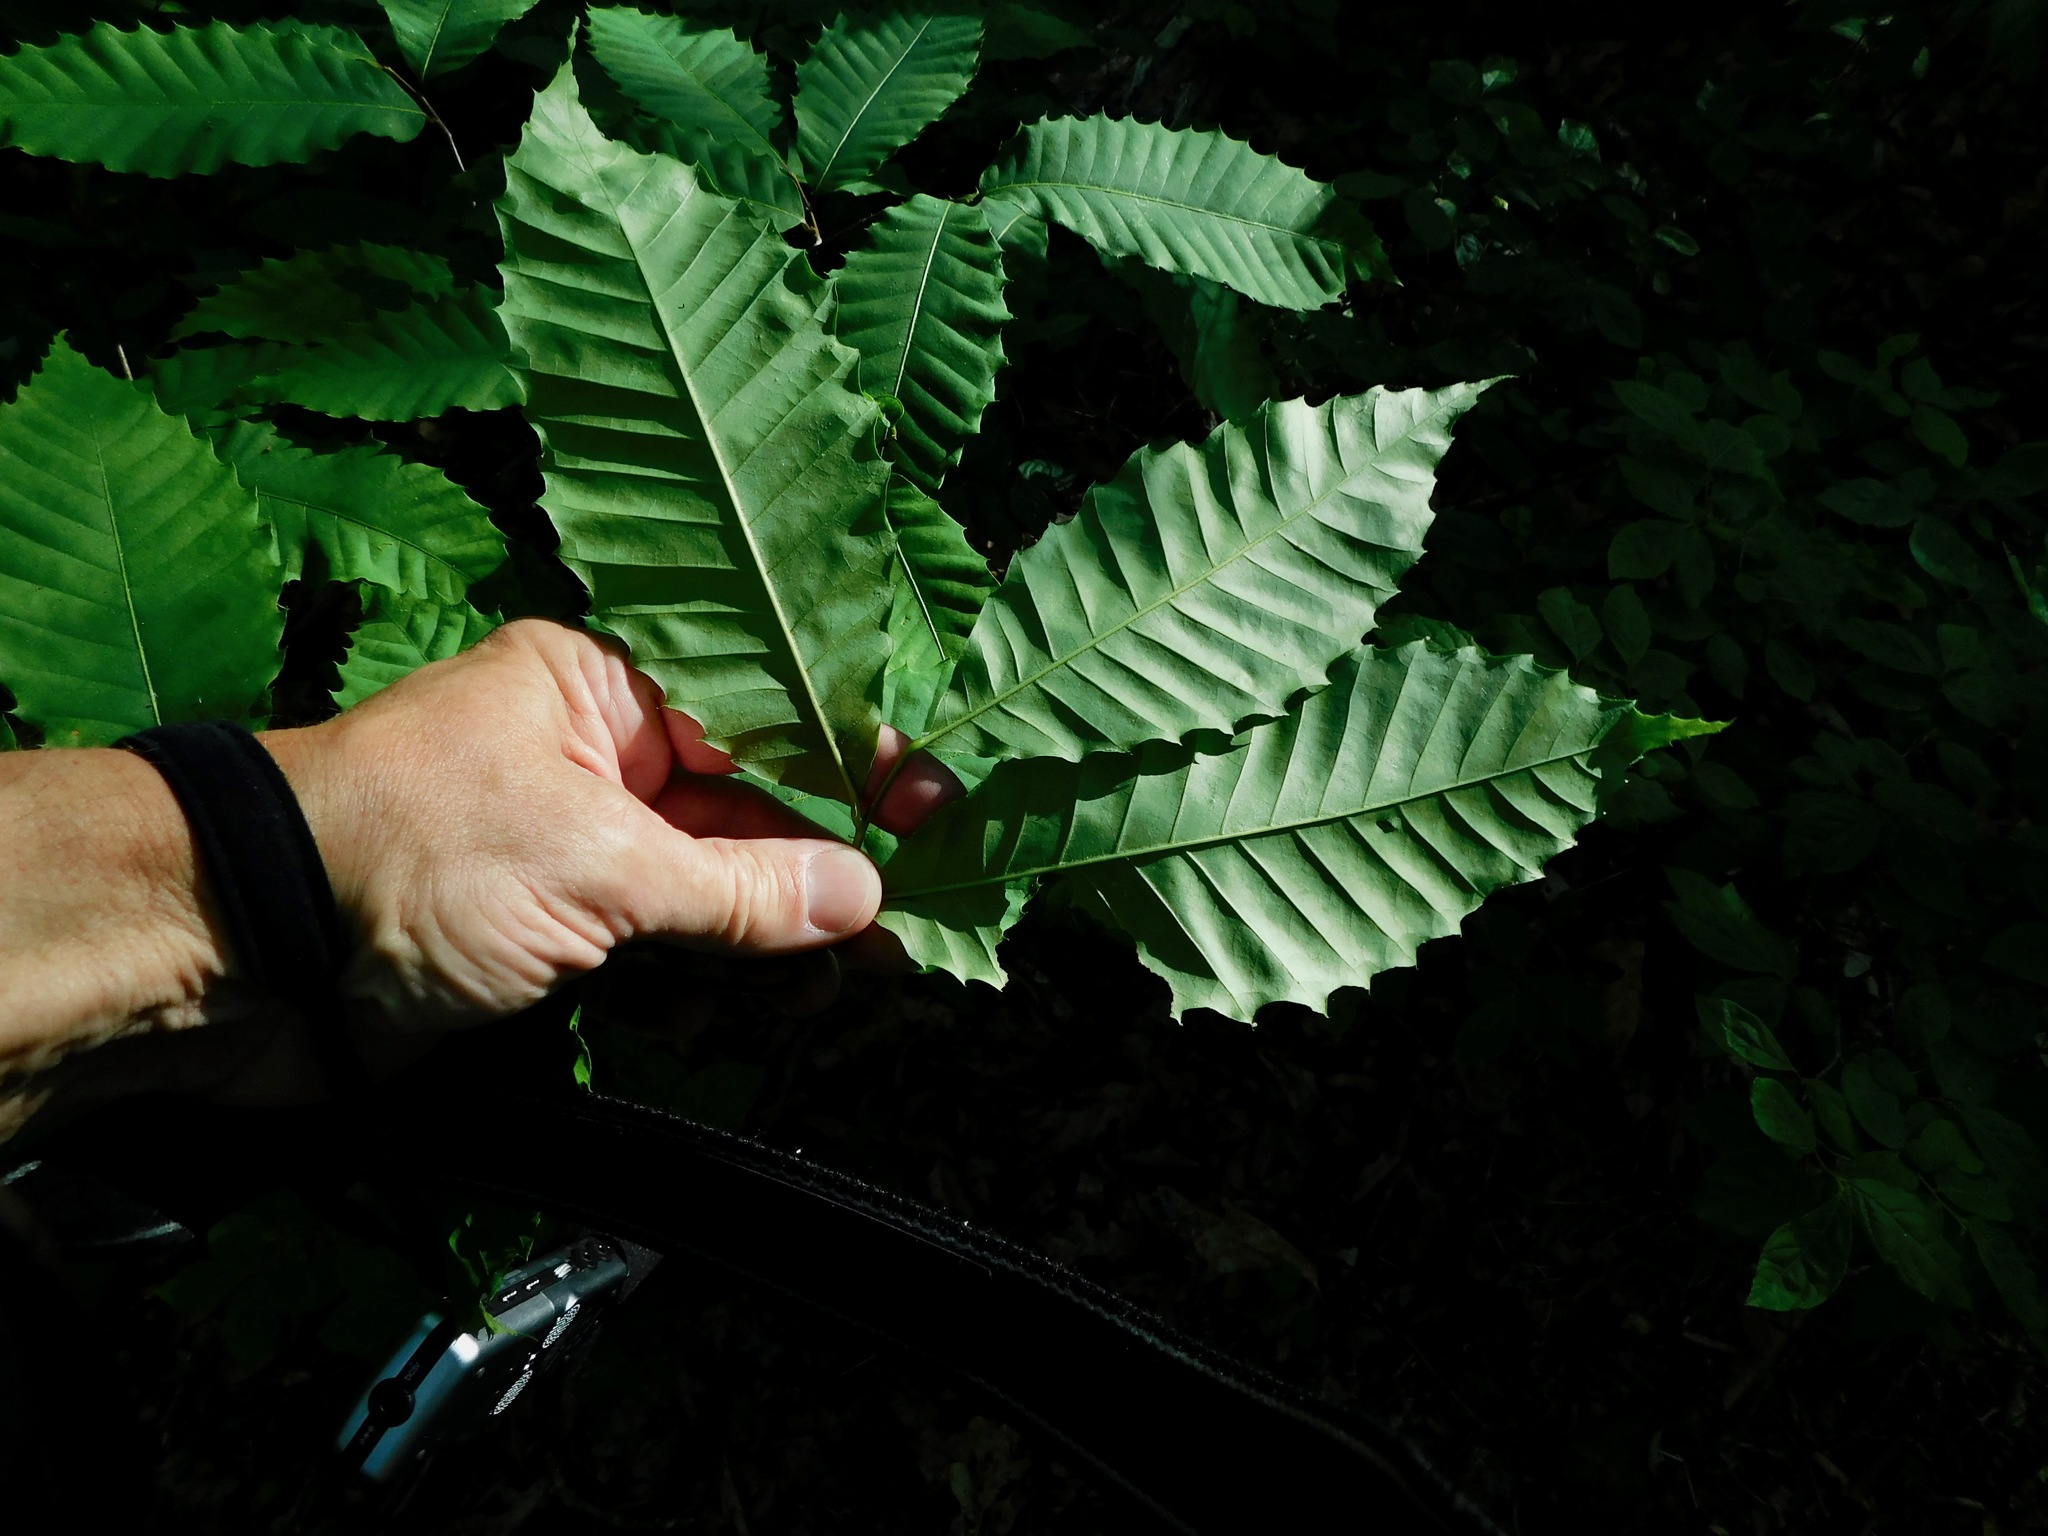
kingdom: Plantae
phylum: Tracheophyta
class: Magnoliopsida
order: Fagales
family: Fagaceae
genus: Castanea
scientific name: Castanea dentata
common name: American chestnut
